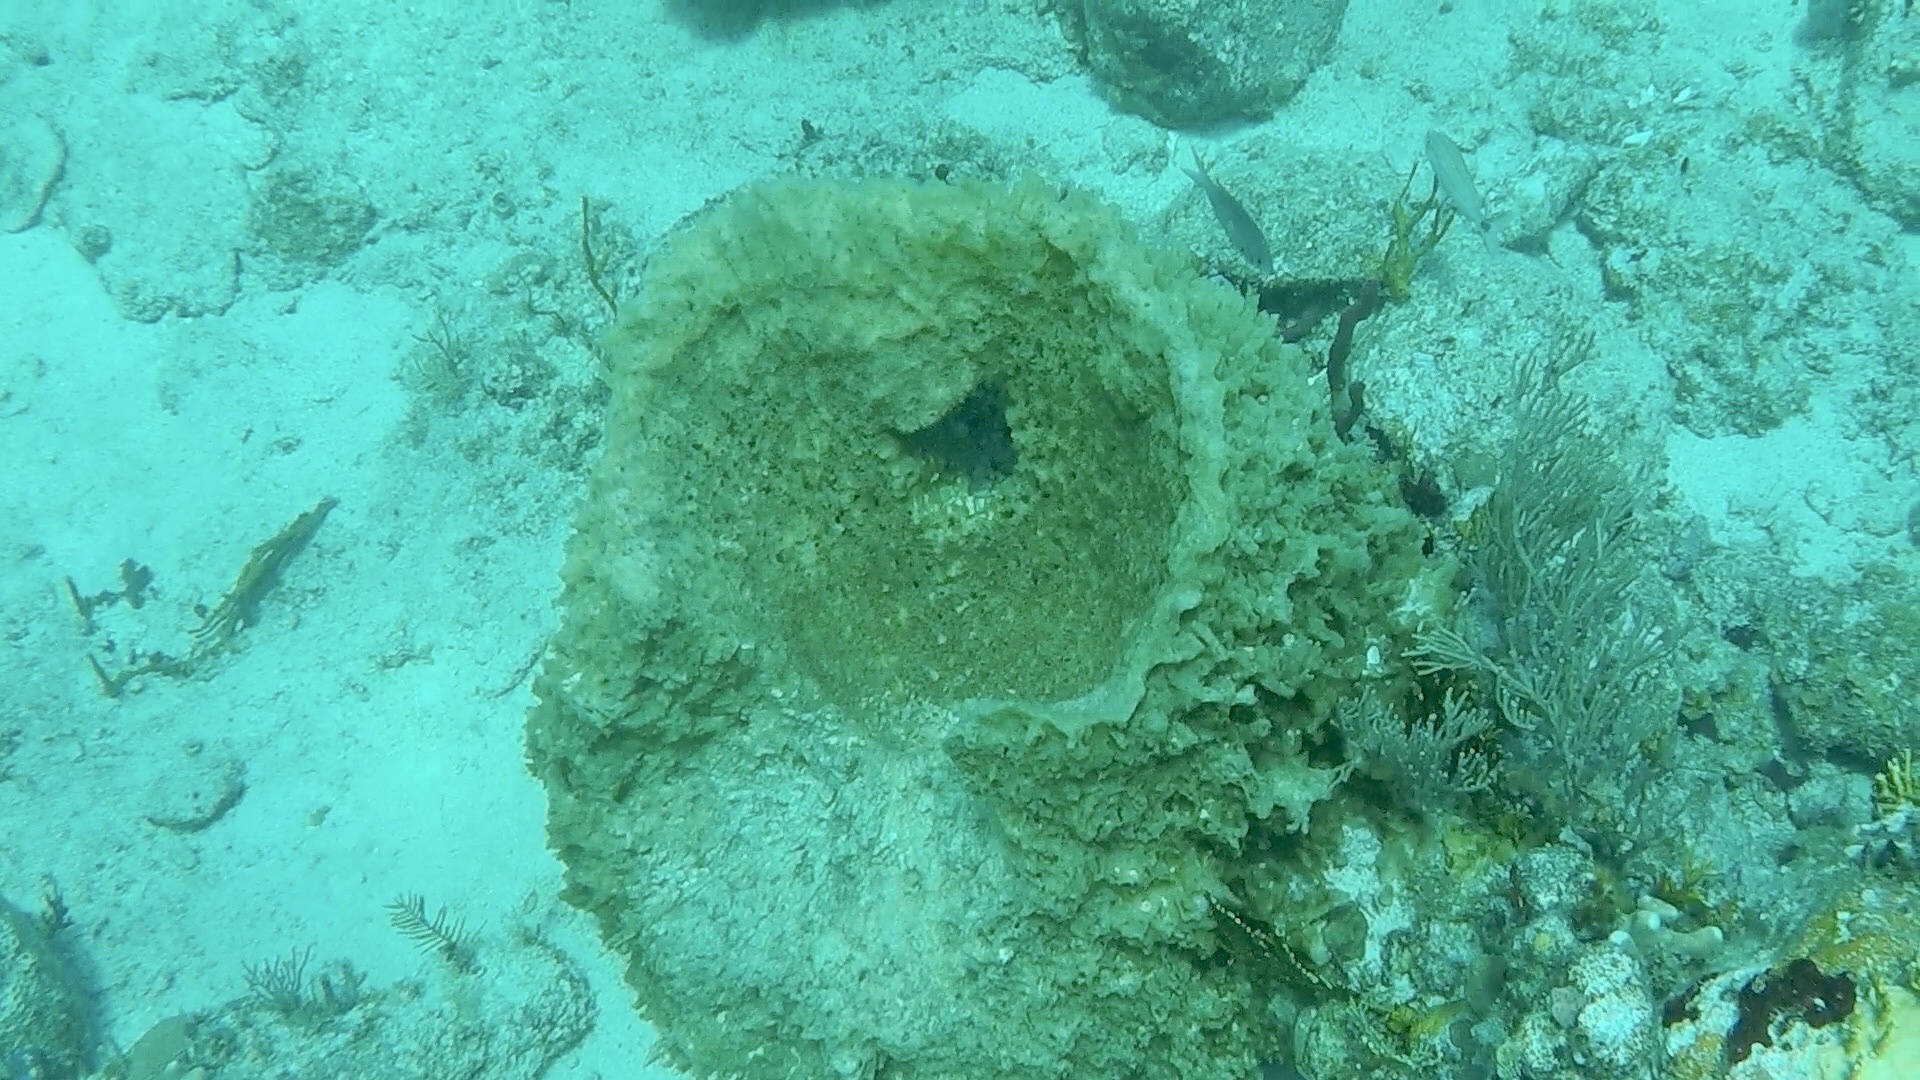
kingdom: Animalia
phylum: Porifera
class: Demospongiae
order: Haplosclerida
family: Petrosiidae
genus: Xestospongia
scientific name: Xestospongia muta
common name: Giant barrel sponge
